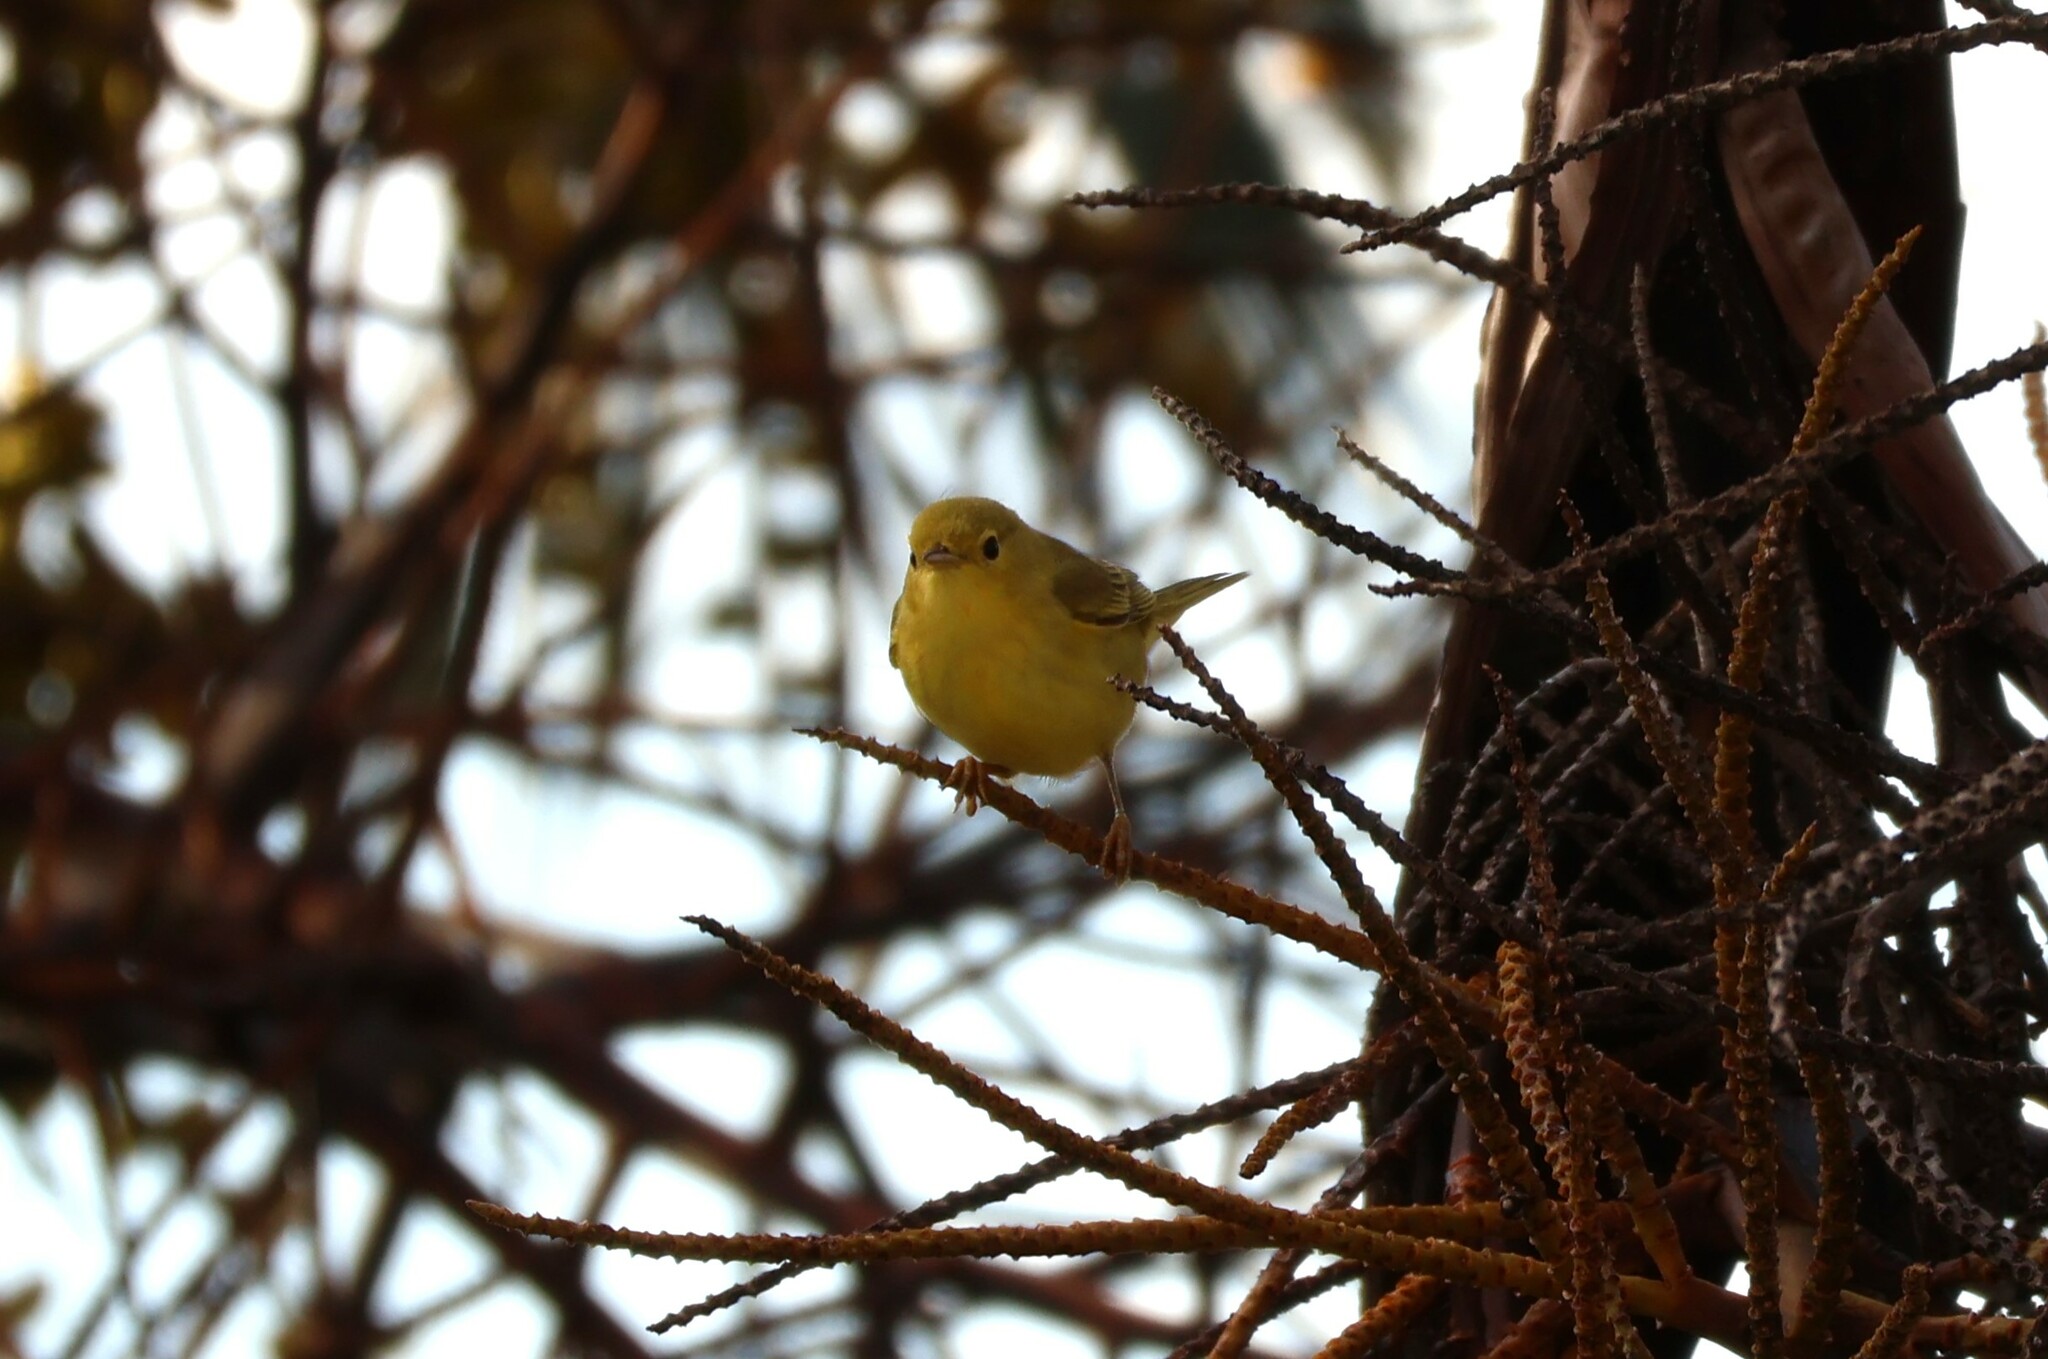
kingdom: Animalia
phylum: Chordata
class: Aves
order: Passeriformes
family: Parulidae
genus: Setophaga
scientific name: Setophaga petechia
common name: Yellow warbler
